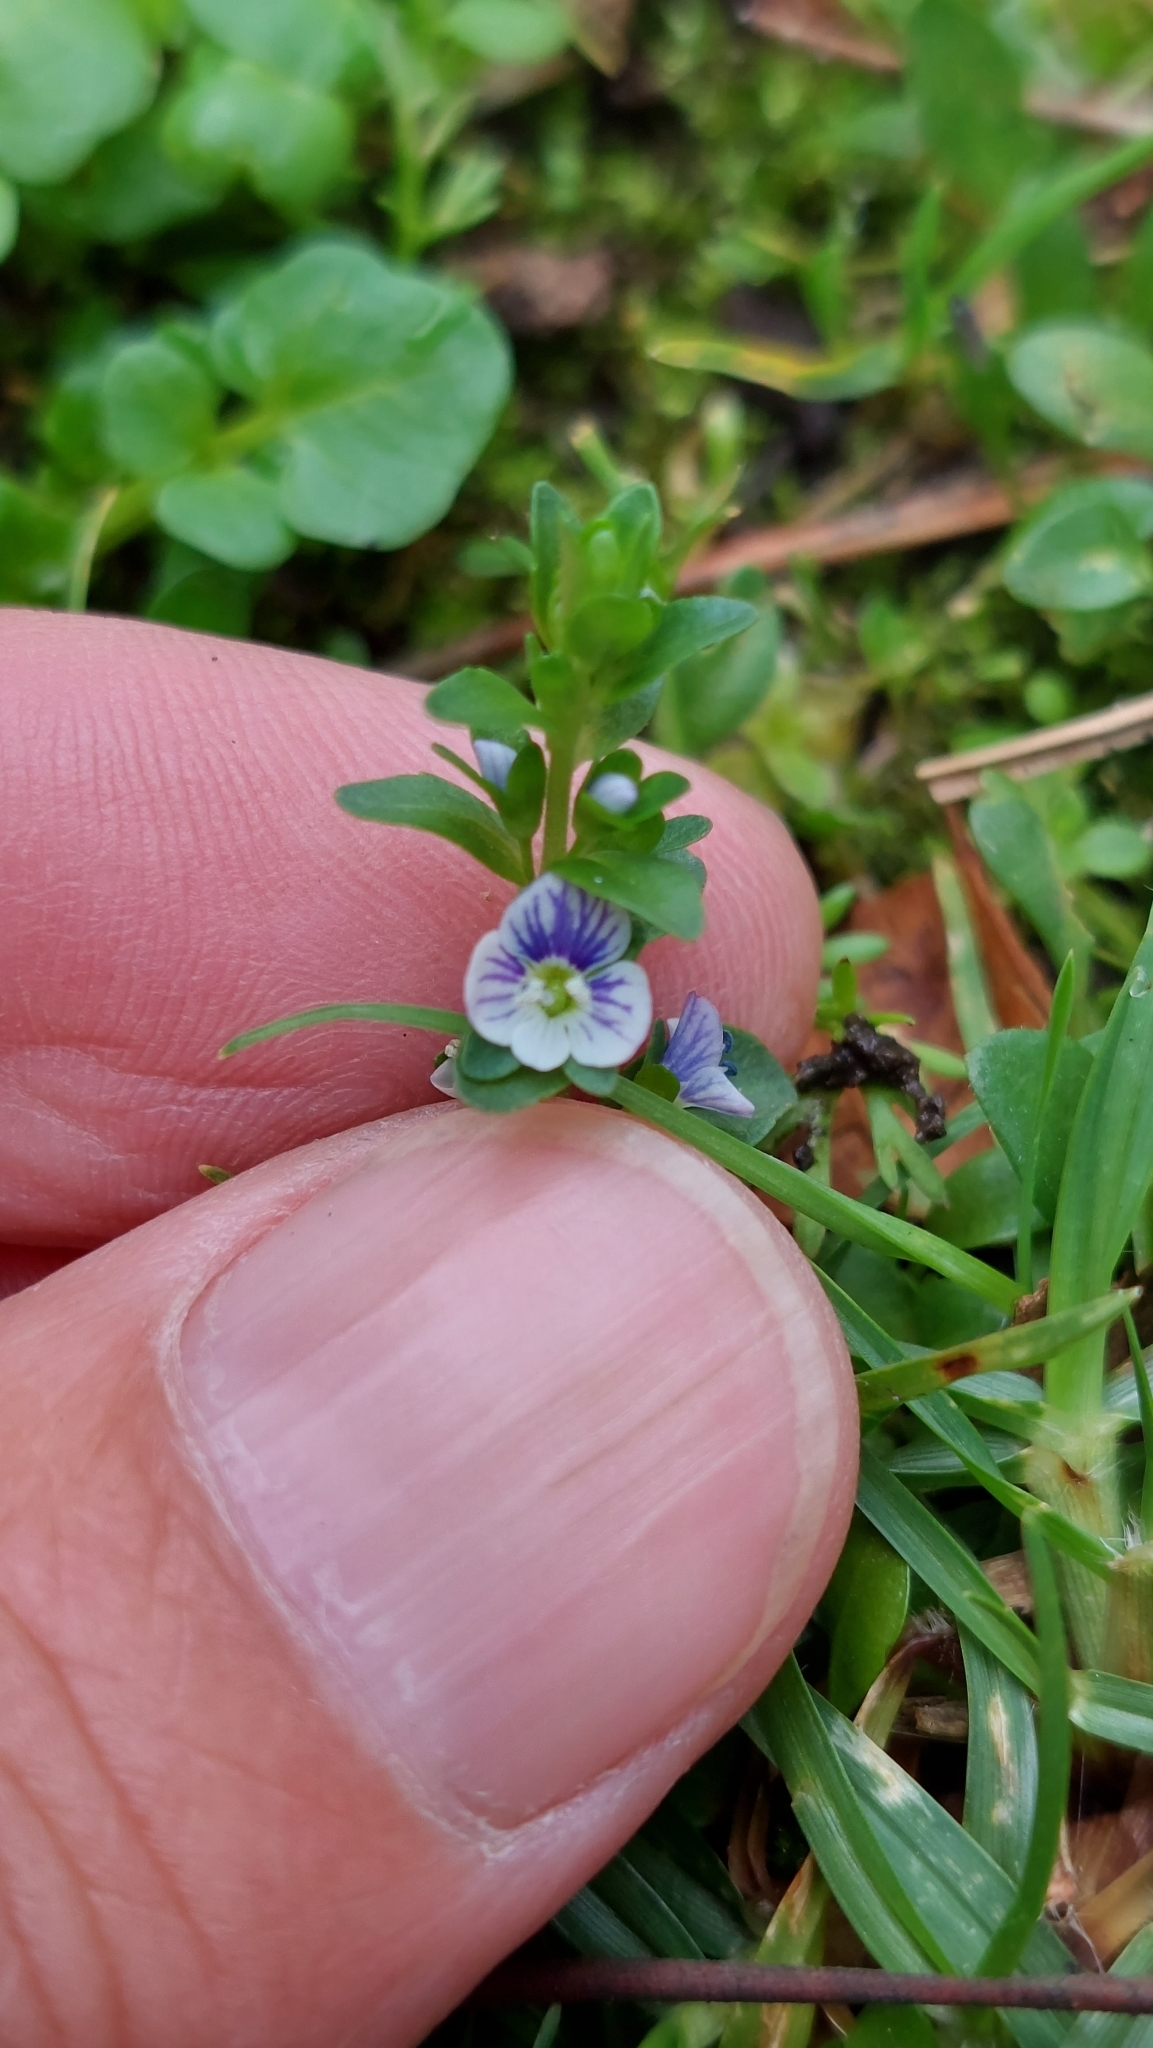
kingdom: Plantae
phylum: Tracheophyta
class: Magnoliopsida
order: Lamiales
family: Plantaginaceae
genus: Veronica
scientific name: Veronica serpyllifolia
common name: Thyme-leaved speedwell
